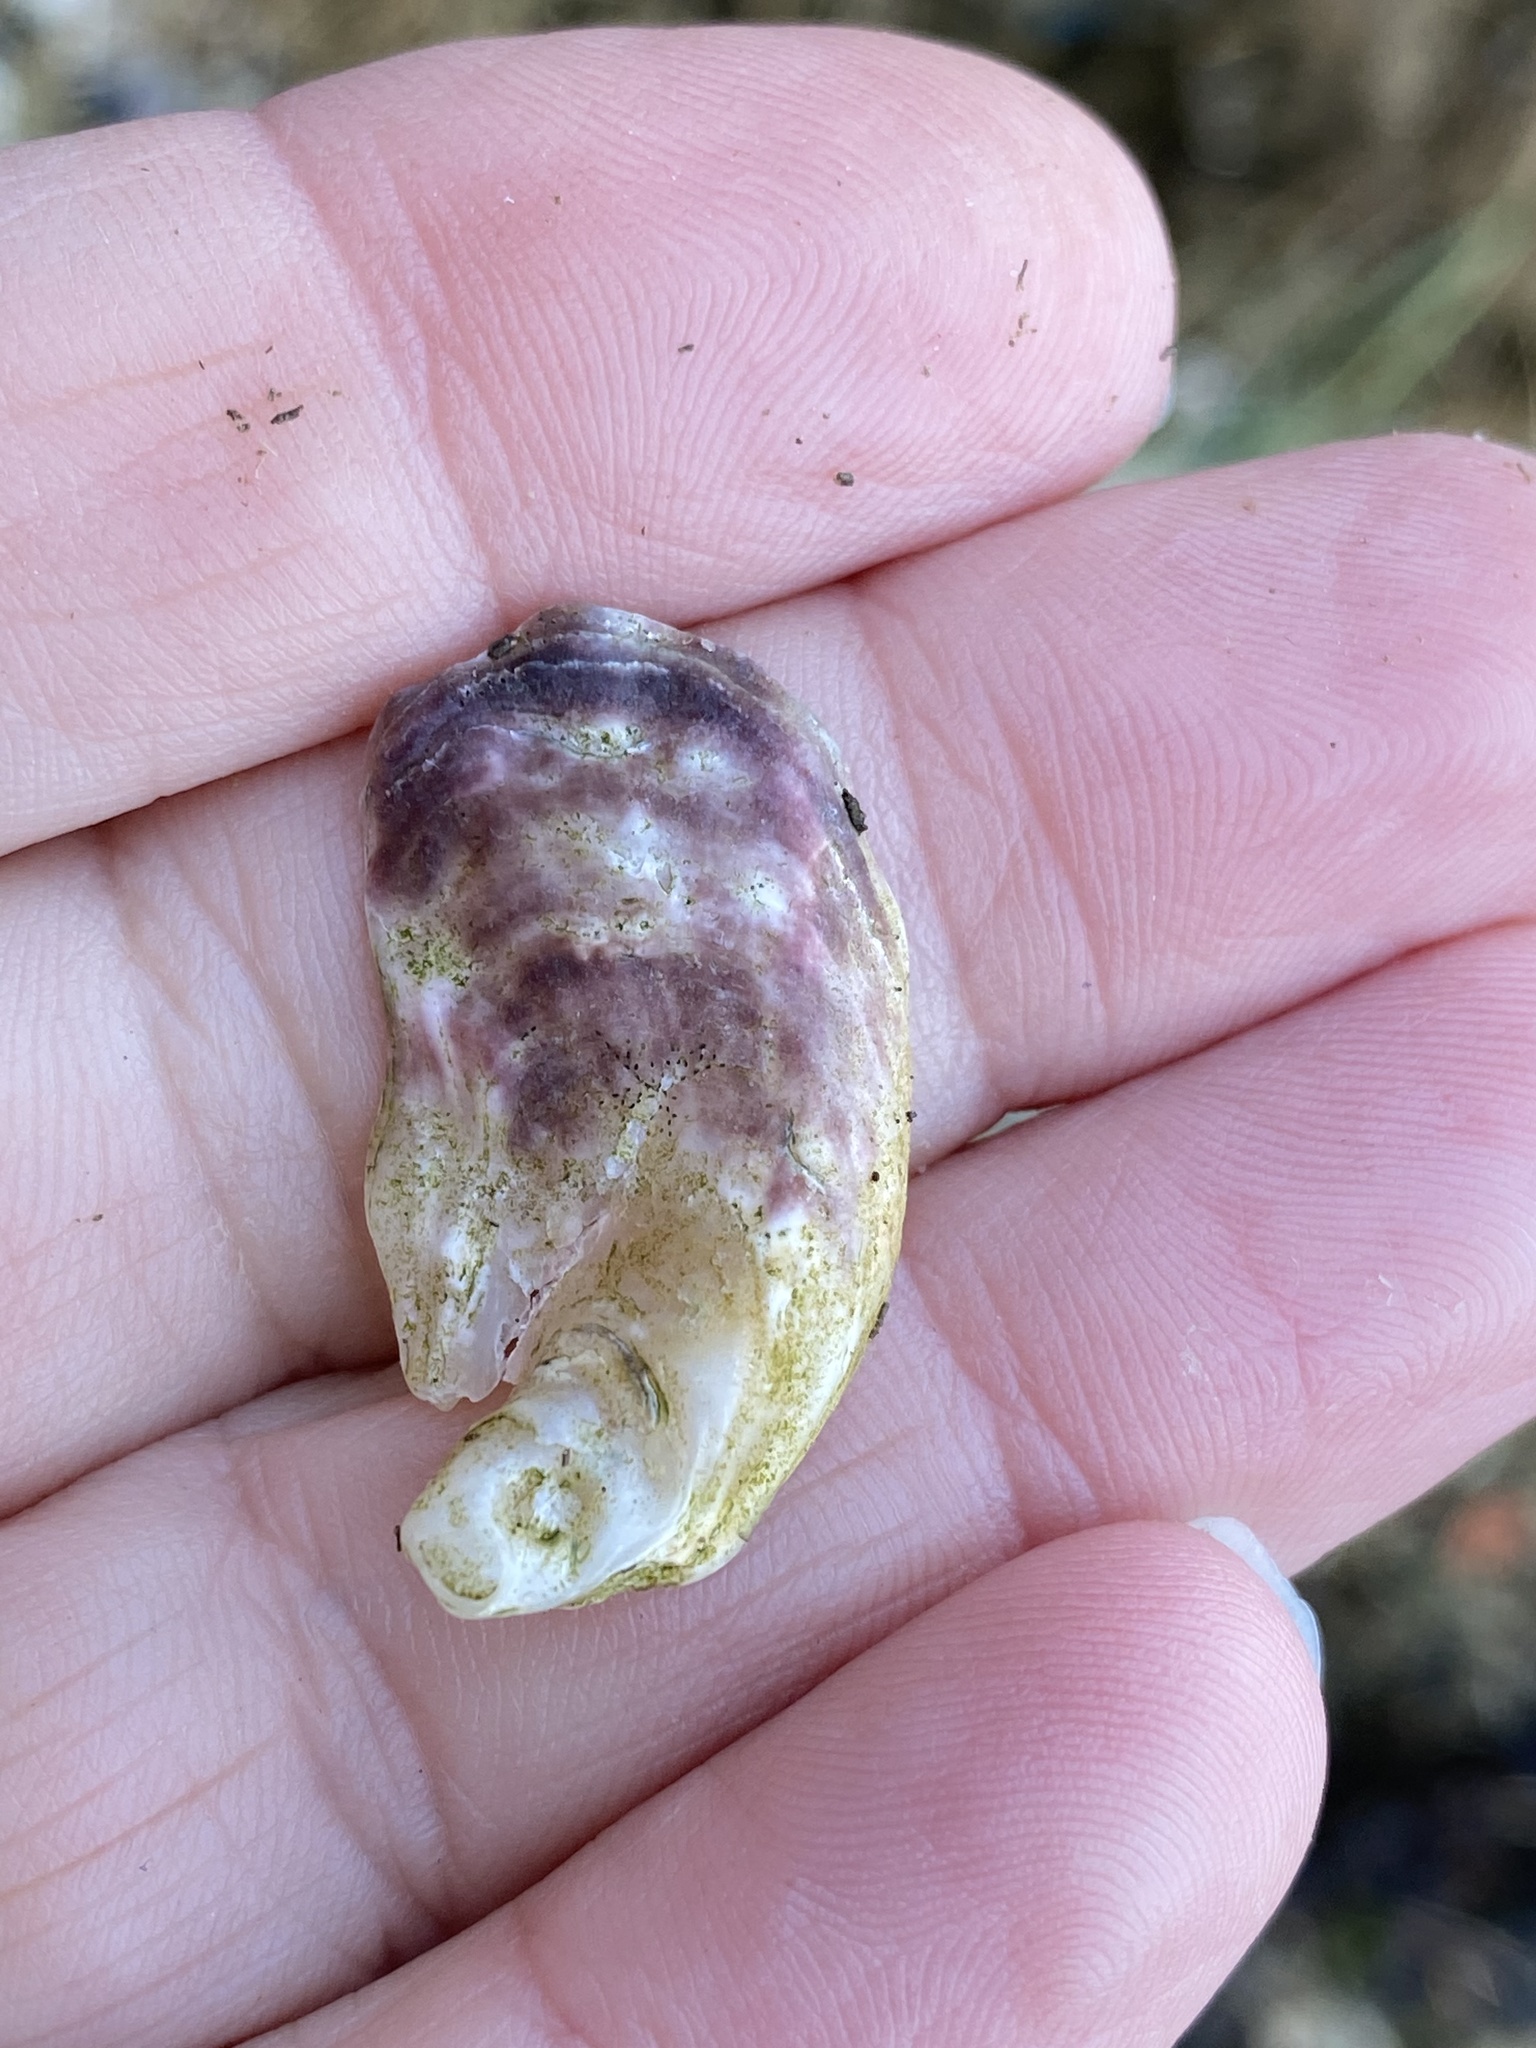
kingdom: Animalia
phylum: Mollusca
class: Bivalvia
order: Ostreida
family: Ostreidae
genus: Ostrea
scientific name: Ostrea lurida
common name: Olympia flat oyster
